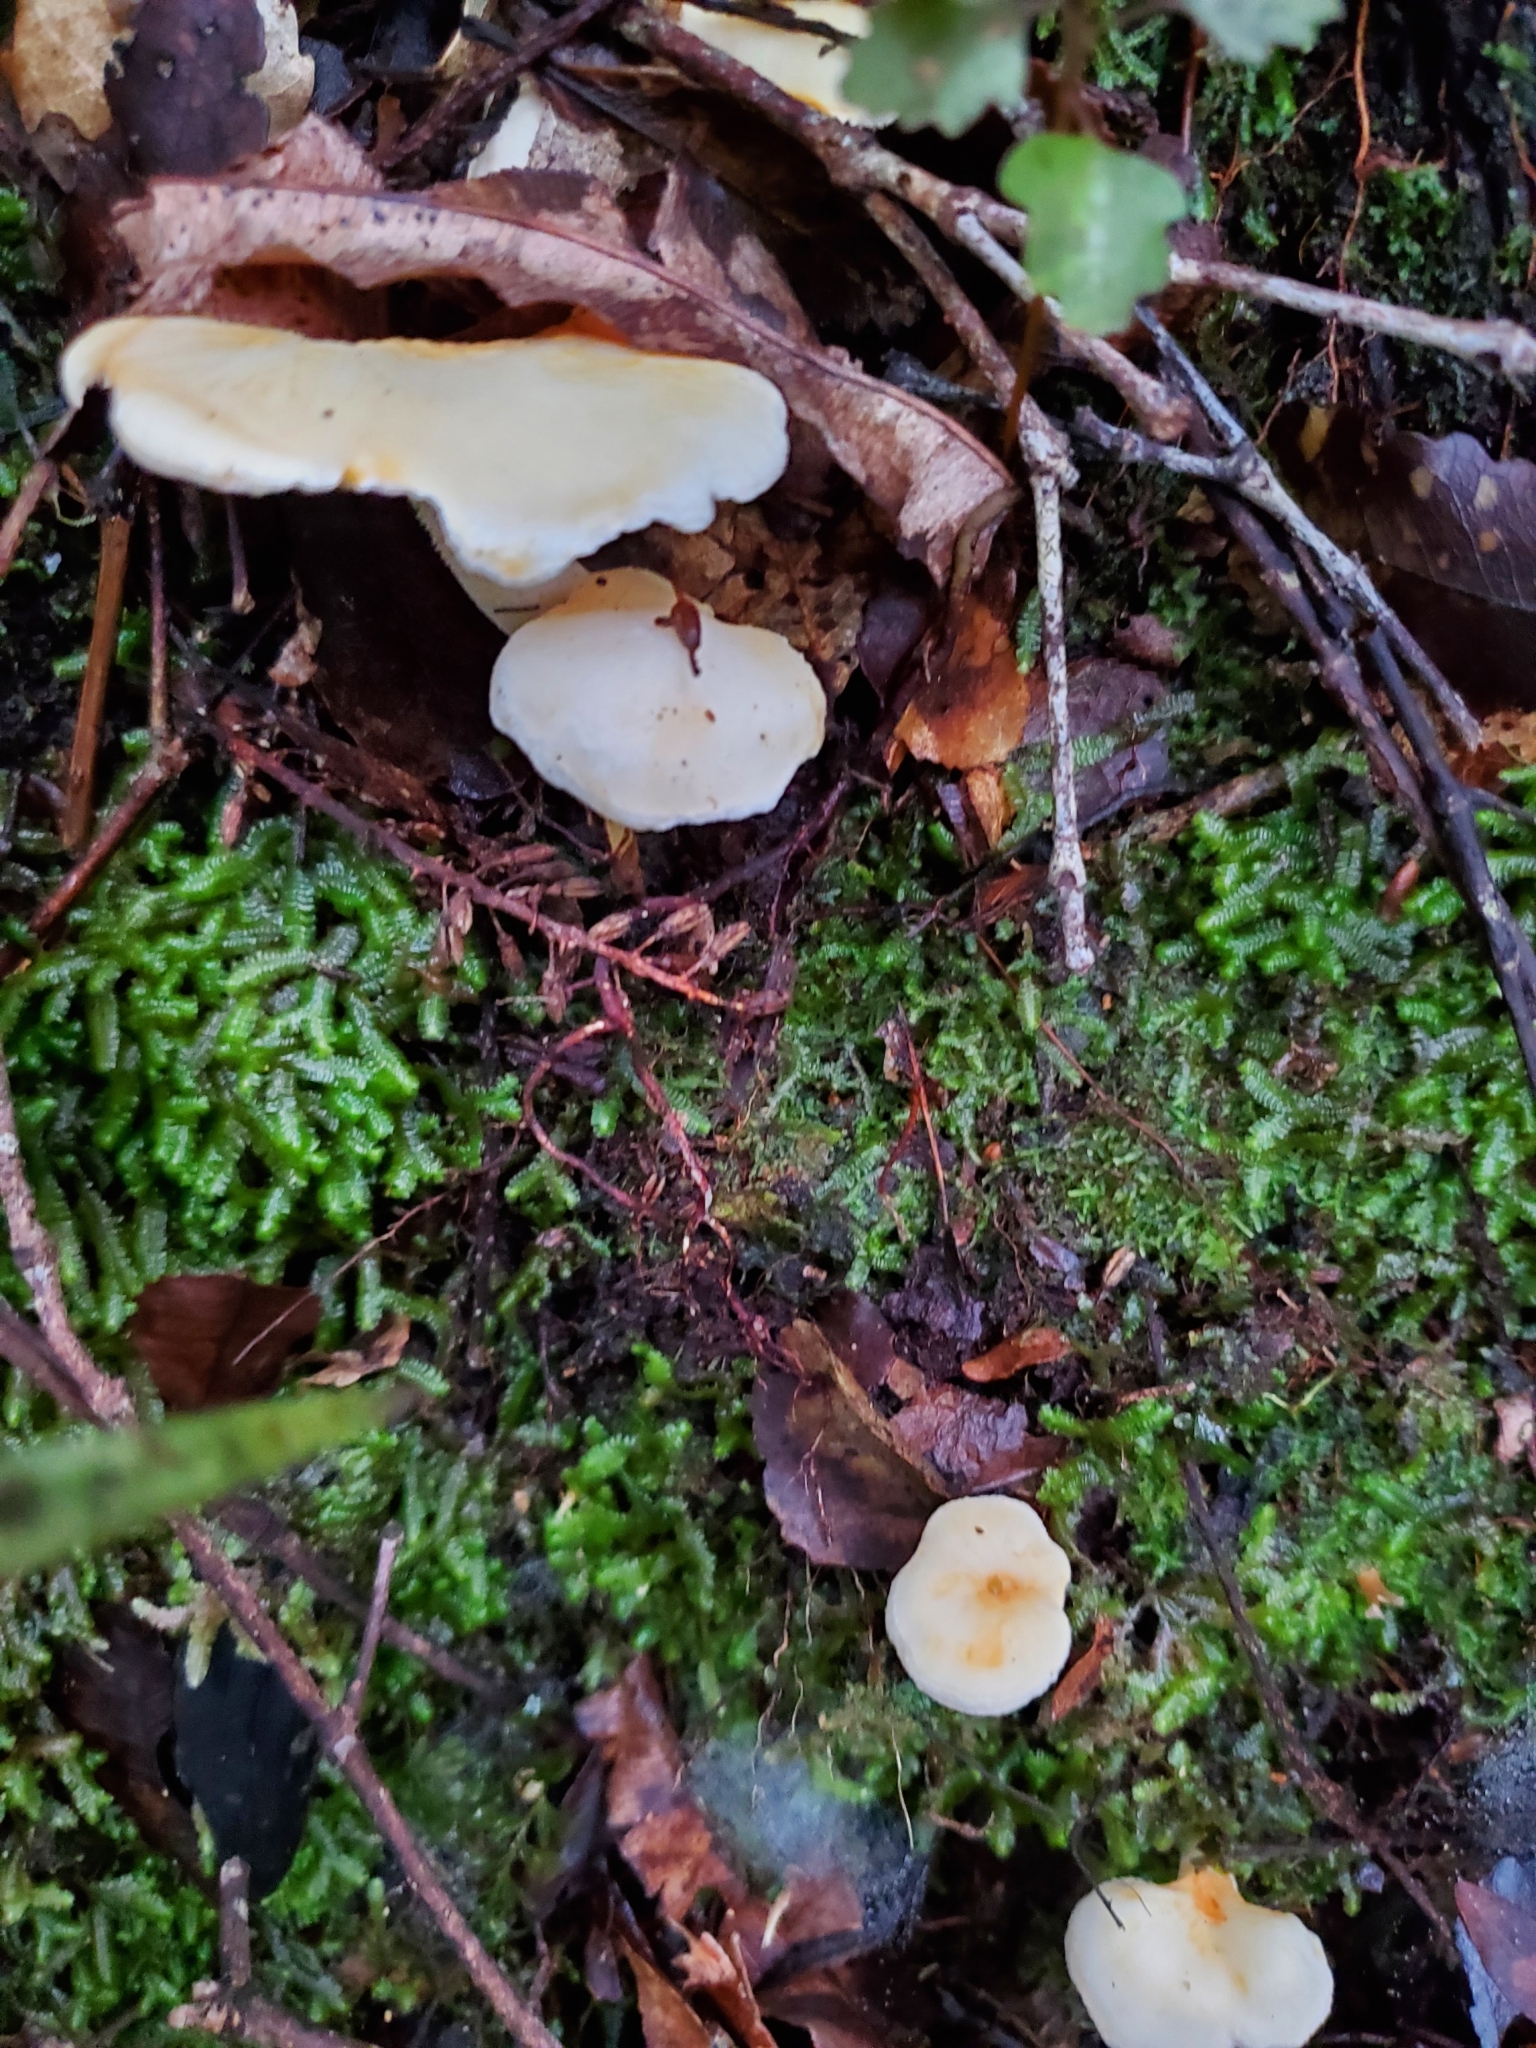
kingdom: Fungi
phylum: Basidiomycota
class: Agaricomycetes
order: Cantharellales
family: Hydnaceae
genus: Hydnum
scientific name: Hydnum ambustum
